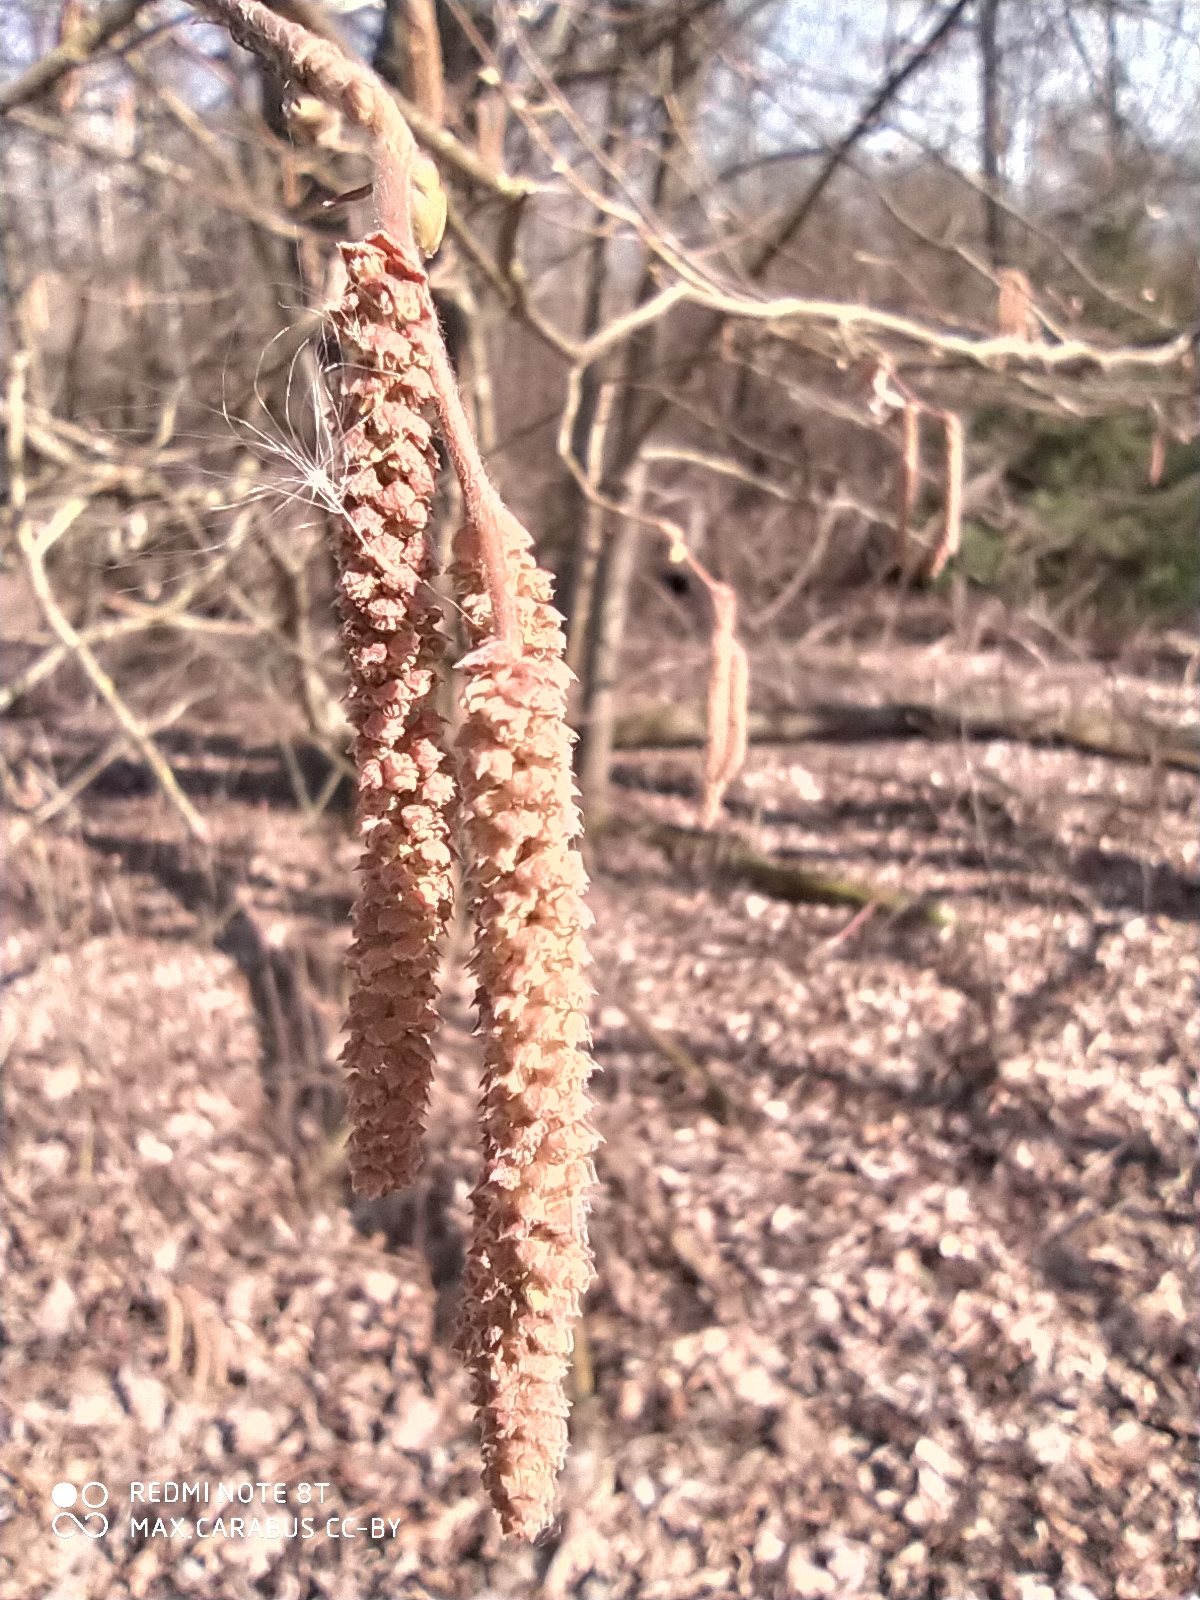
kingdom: Plantae
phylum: Tracheophyta
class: Magnoliopsida
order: Fagales
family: Betulaceae
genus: Corylus
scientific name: Corylus avellana
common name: European hazel
